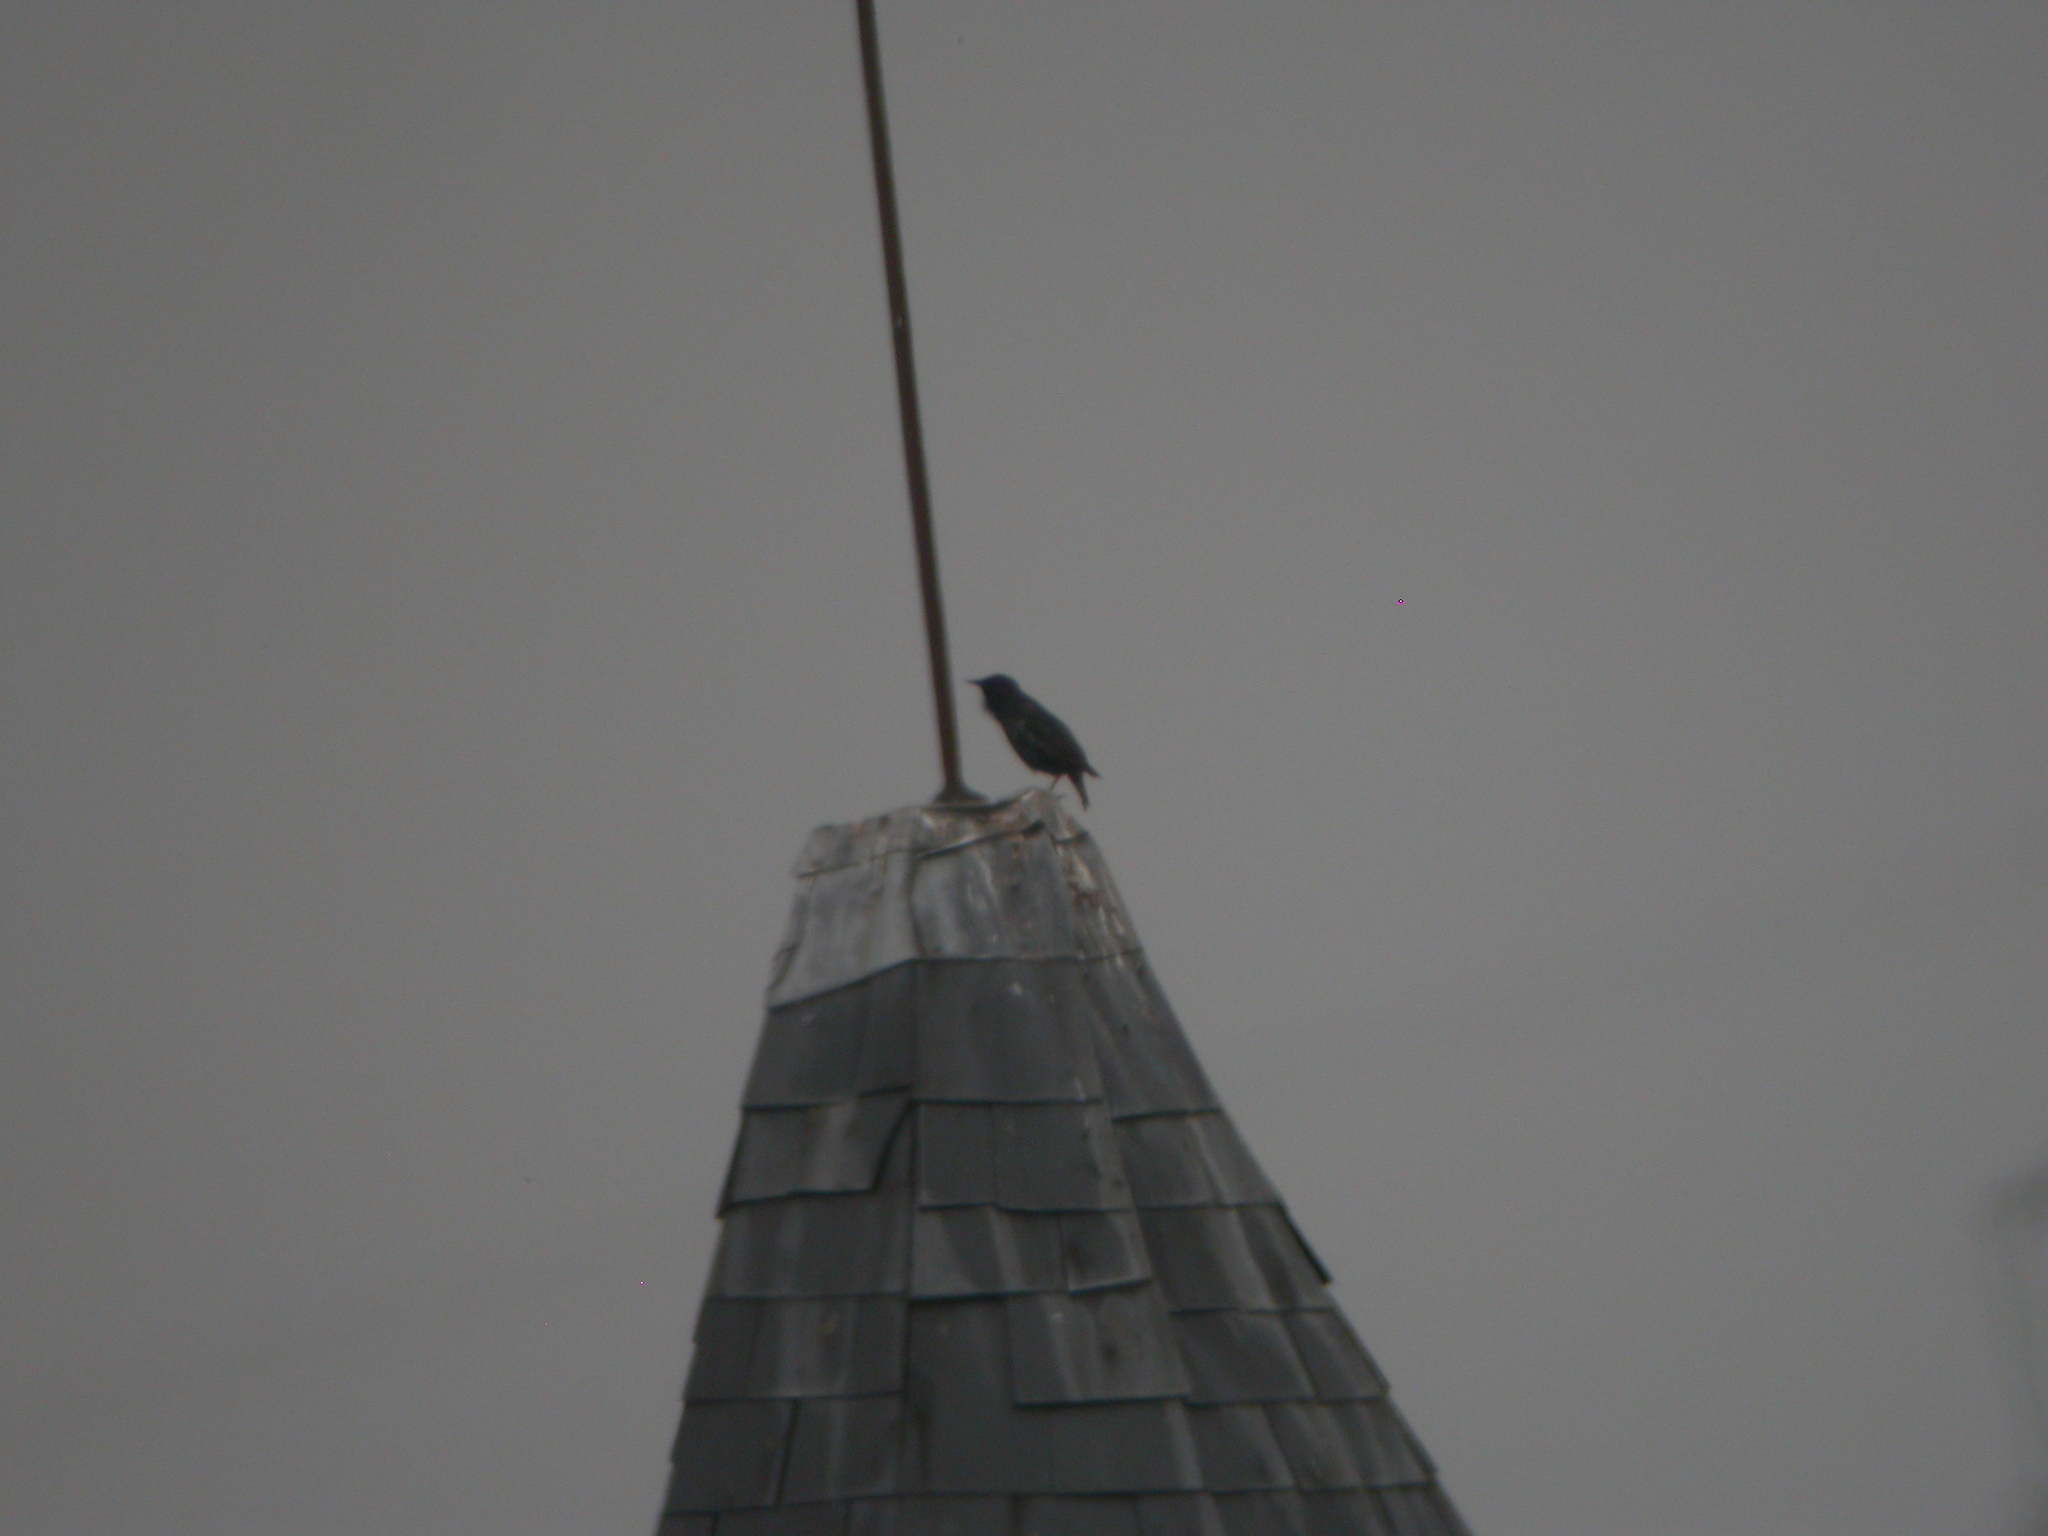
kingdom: Animalia
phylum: Chordata
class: Aves
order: Passeriformes
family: Sturnidae
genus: Sturnus
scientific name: Sturnus vulgaris
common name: Common starling
